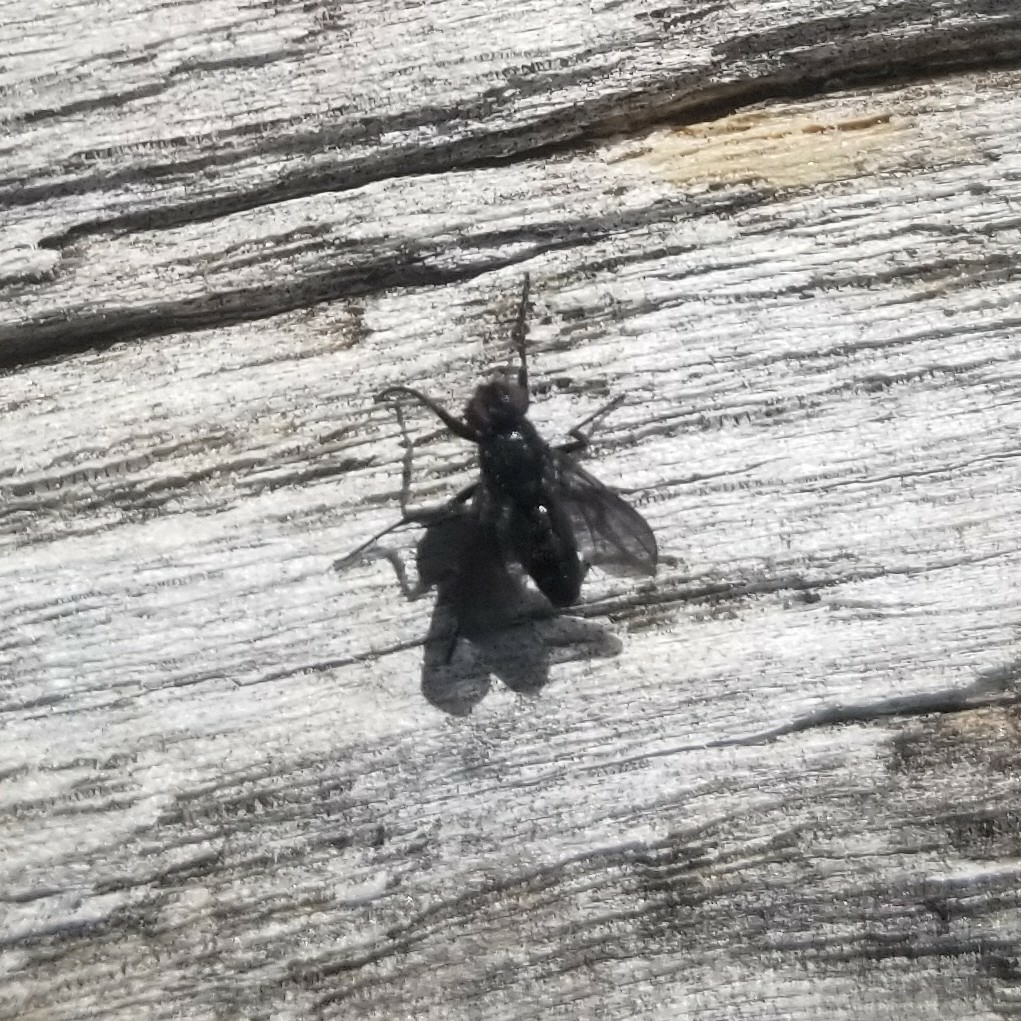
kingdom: Animalia
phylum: Arthropoda
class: Insecta
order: Diptera
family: Calliphoridae
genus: Melanophora
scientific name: Melanophora roralis
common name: Smoky-winged woodlouse-fly
